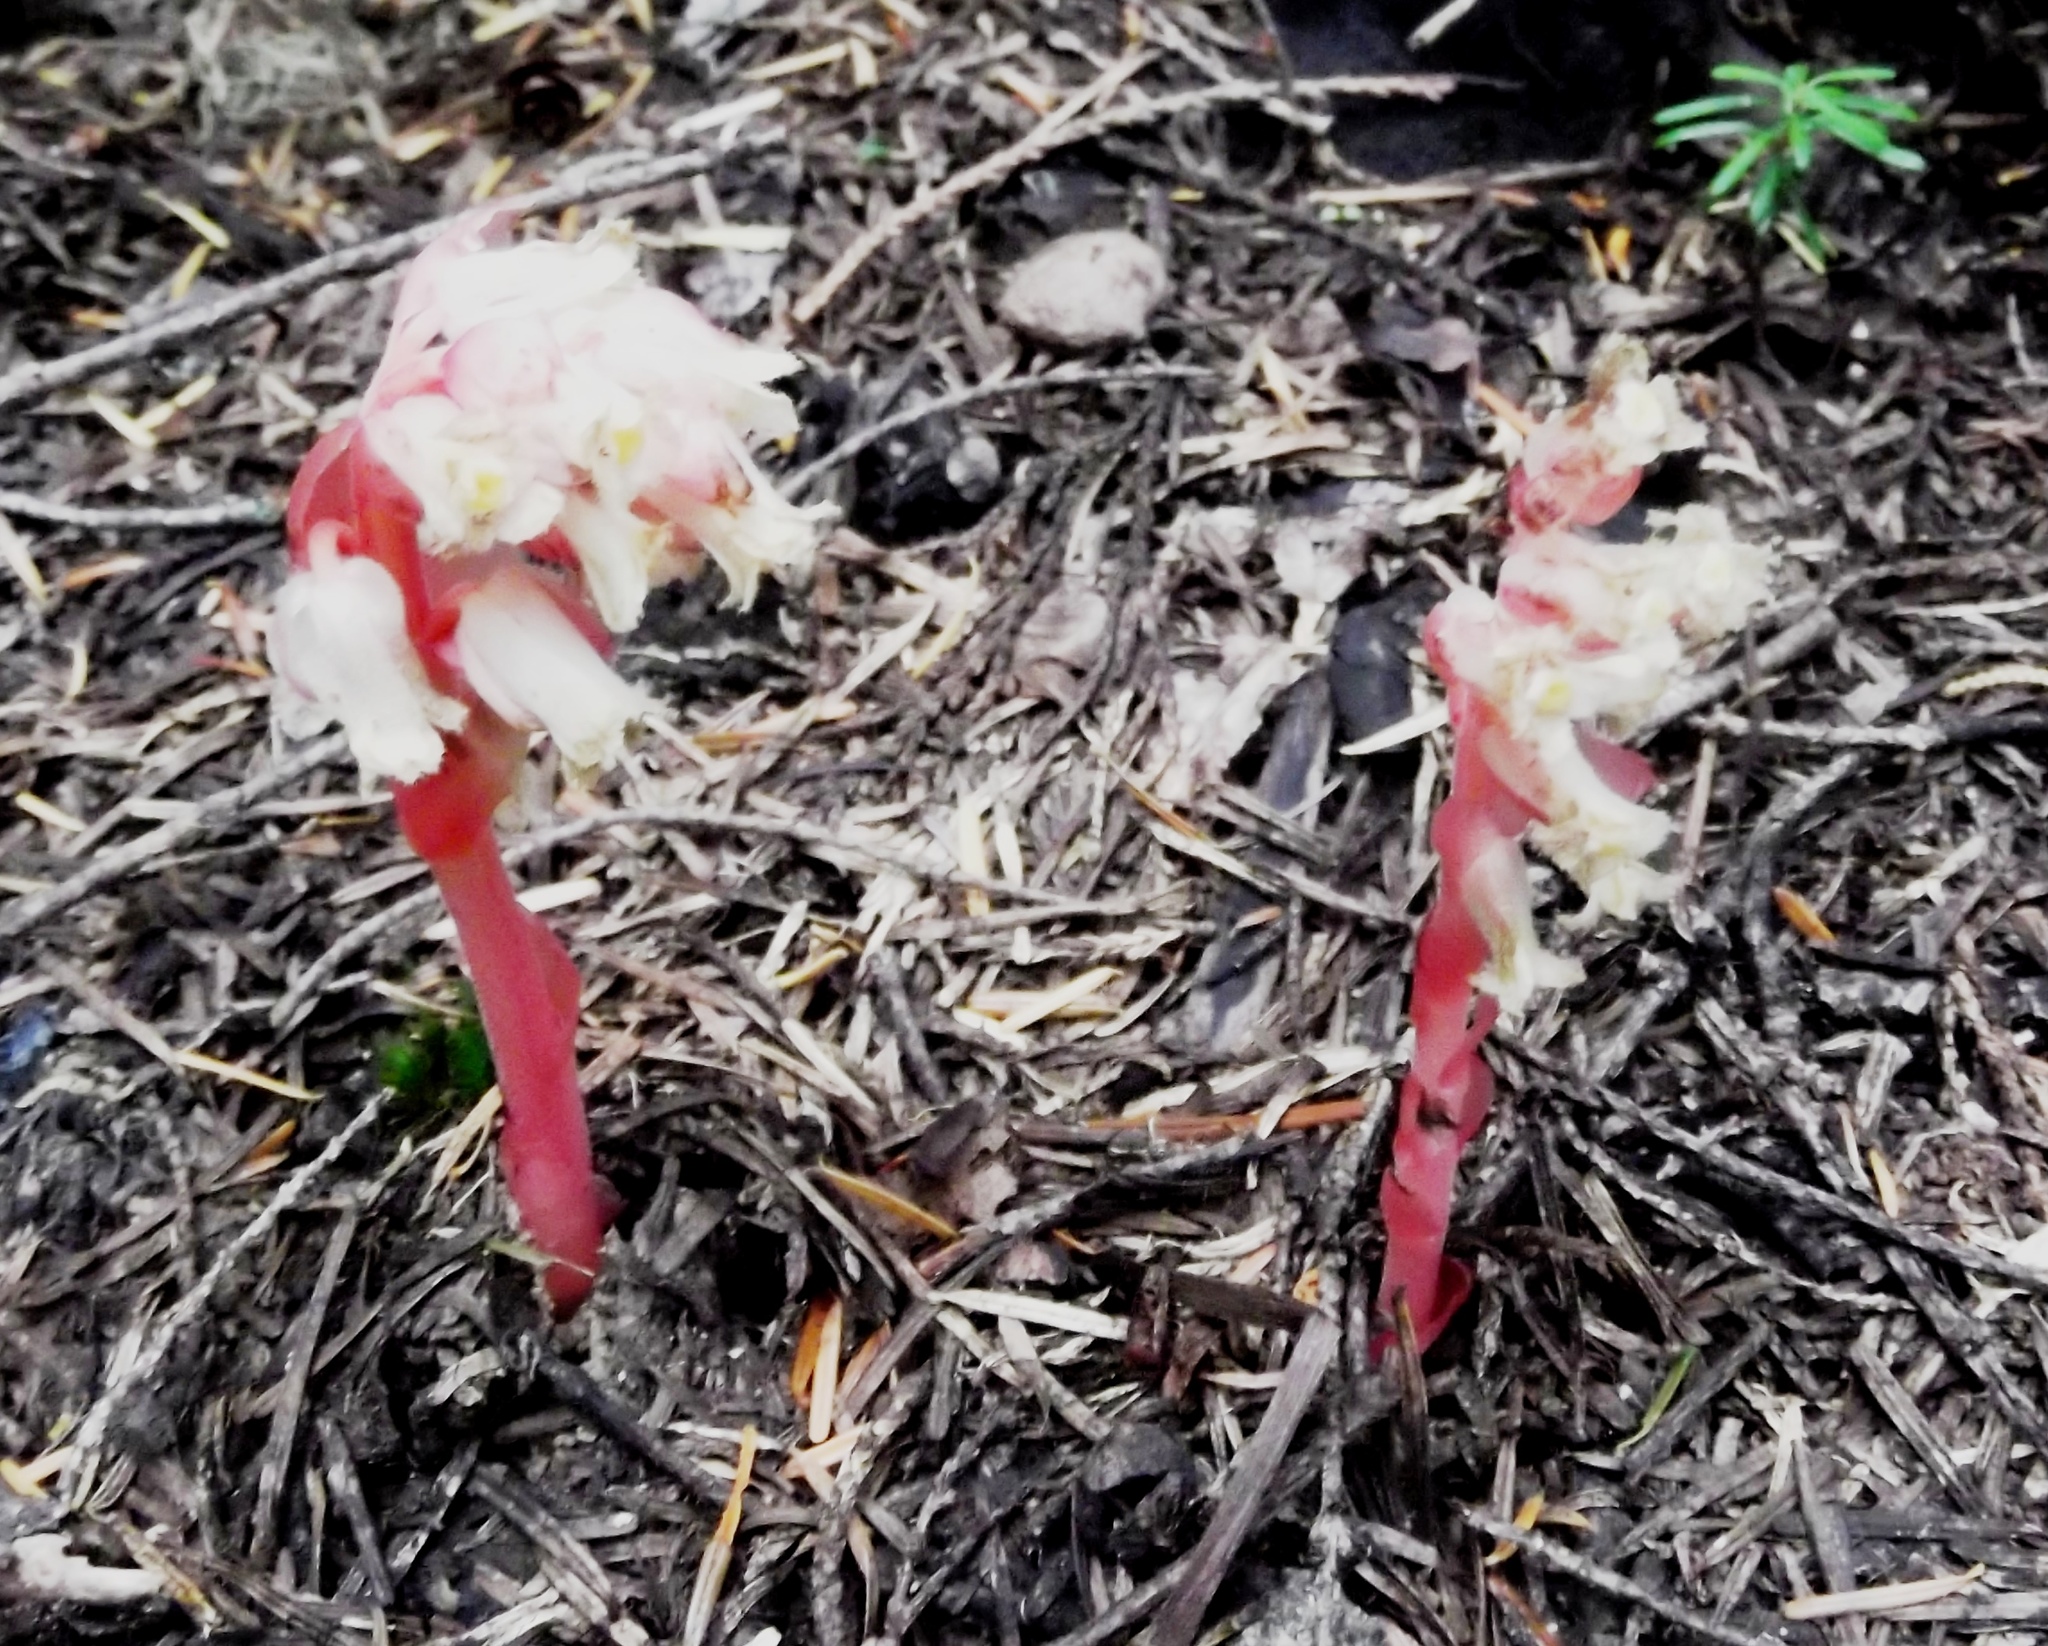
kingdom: Plantae
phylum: Tracheophyta
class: Magnoliopsida
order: Ericales
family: Ericaceae
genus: Hypopitys
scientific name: Hypopitys monotropa
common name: Yellow bird's-nest
